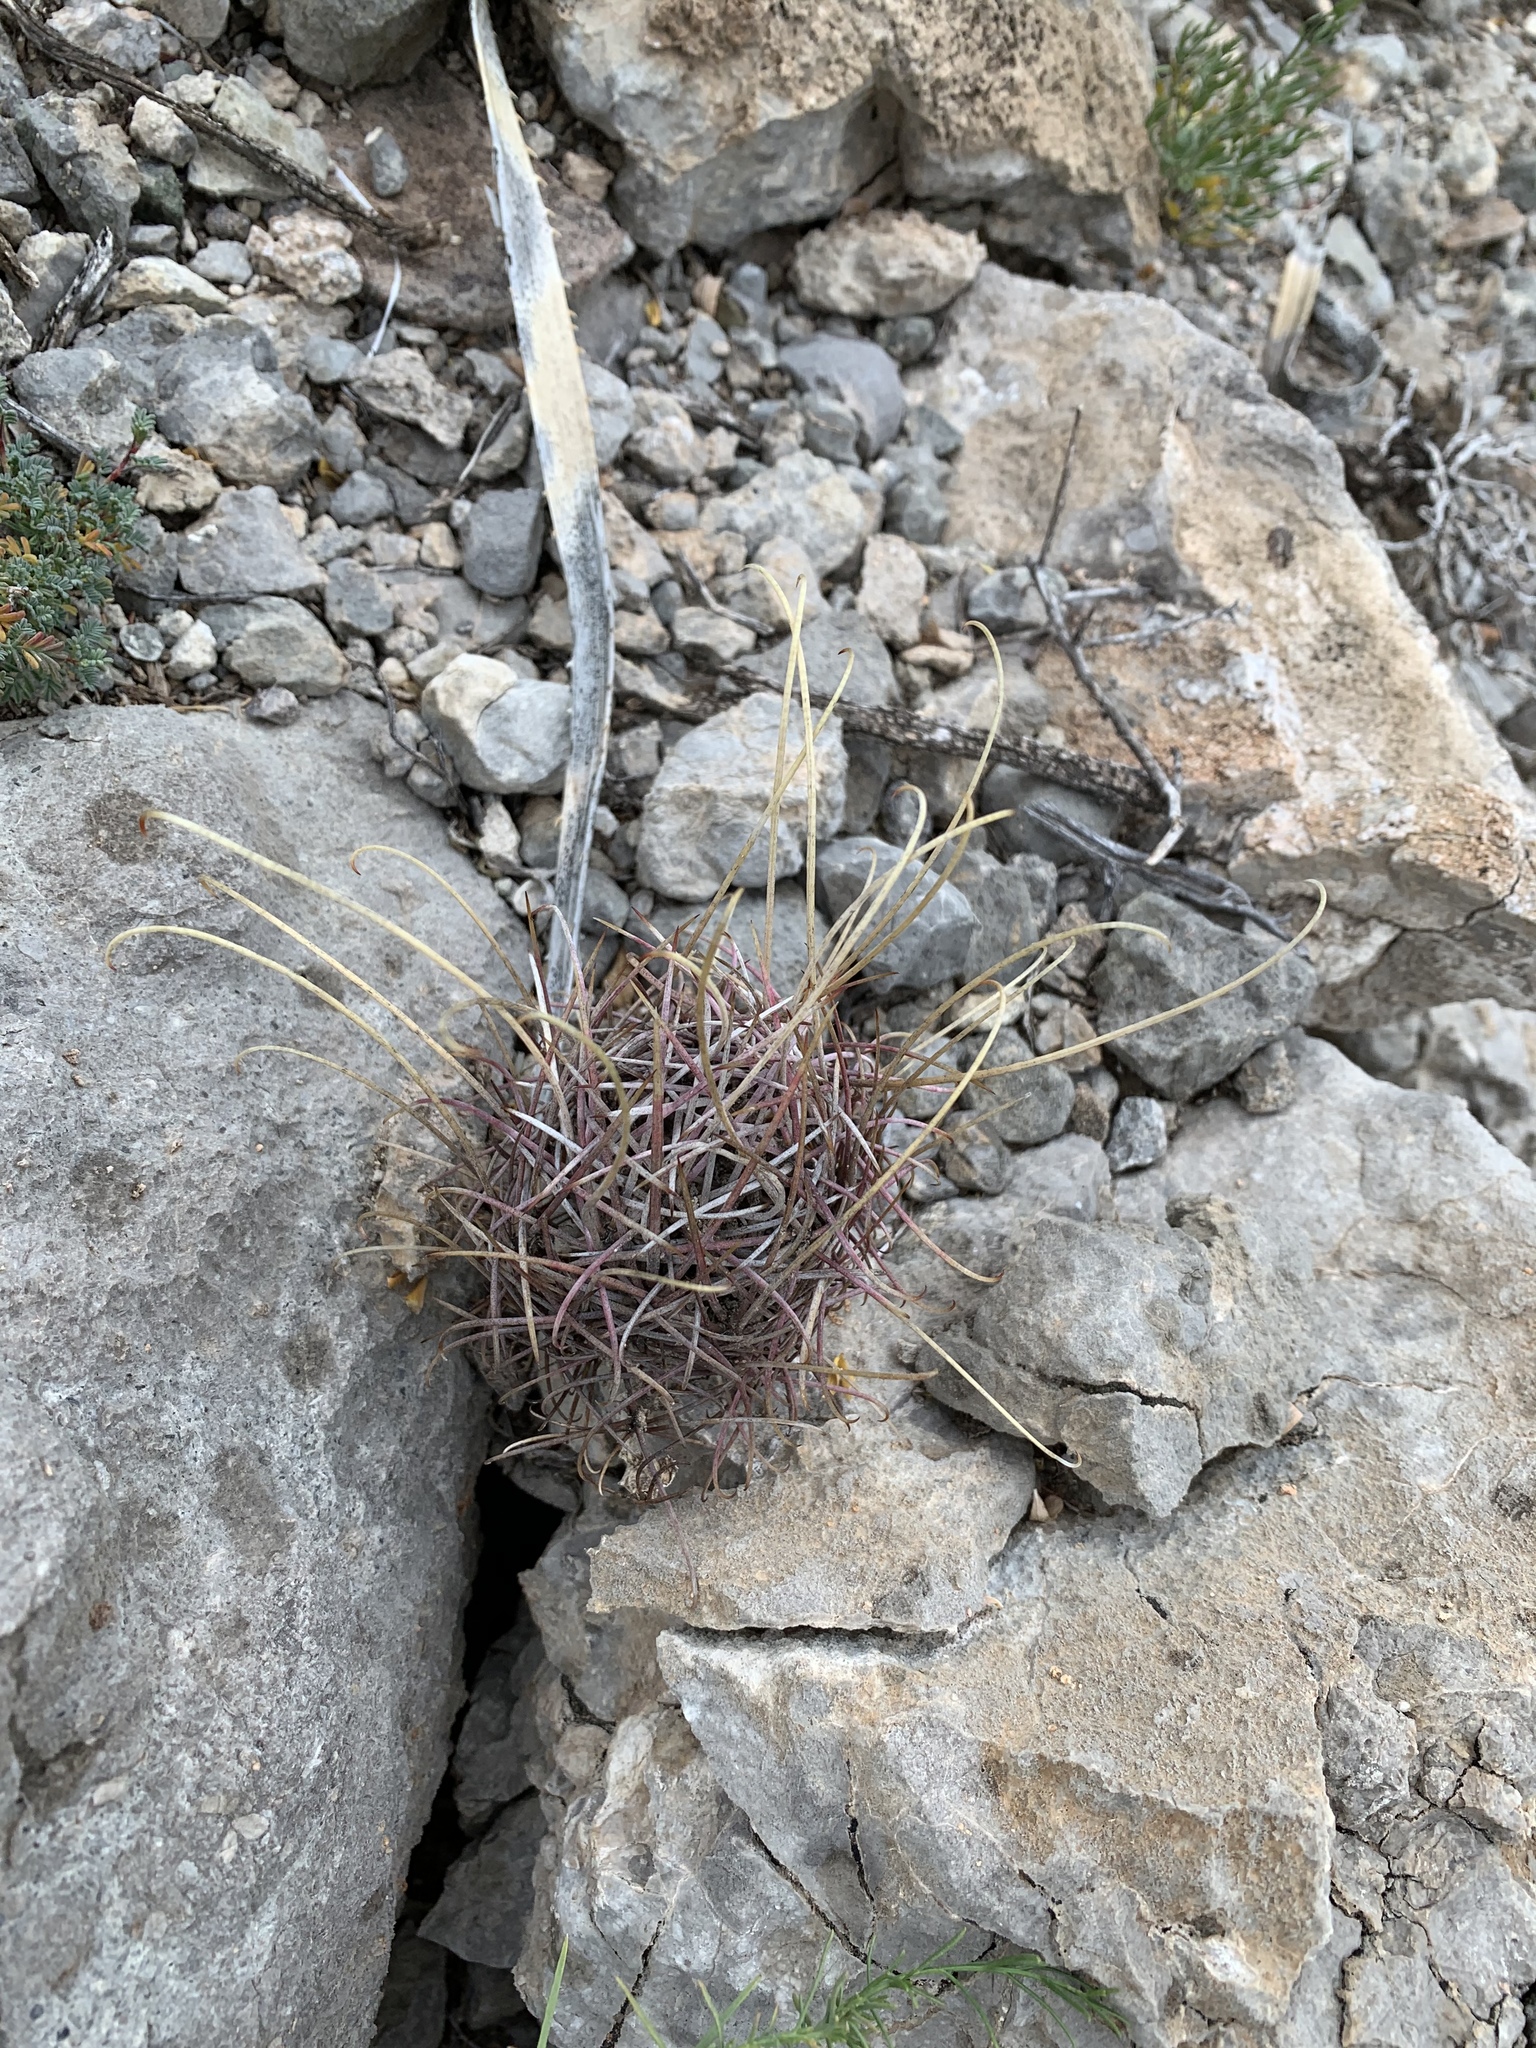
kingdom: Plantae
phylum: Tracheophyta
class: Magnoliopsida
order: Caryophyllales
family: Cactaceae
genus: Ferocactus
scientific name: Ferocactus uncinatus
